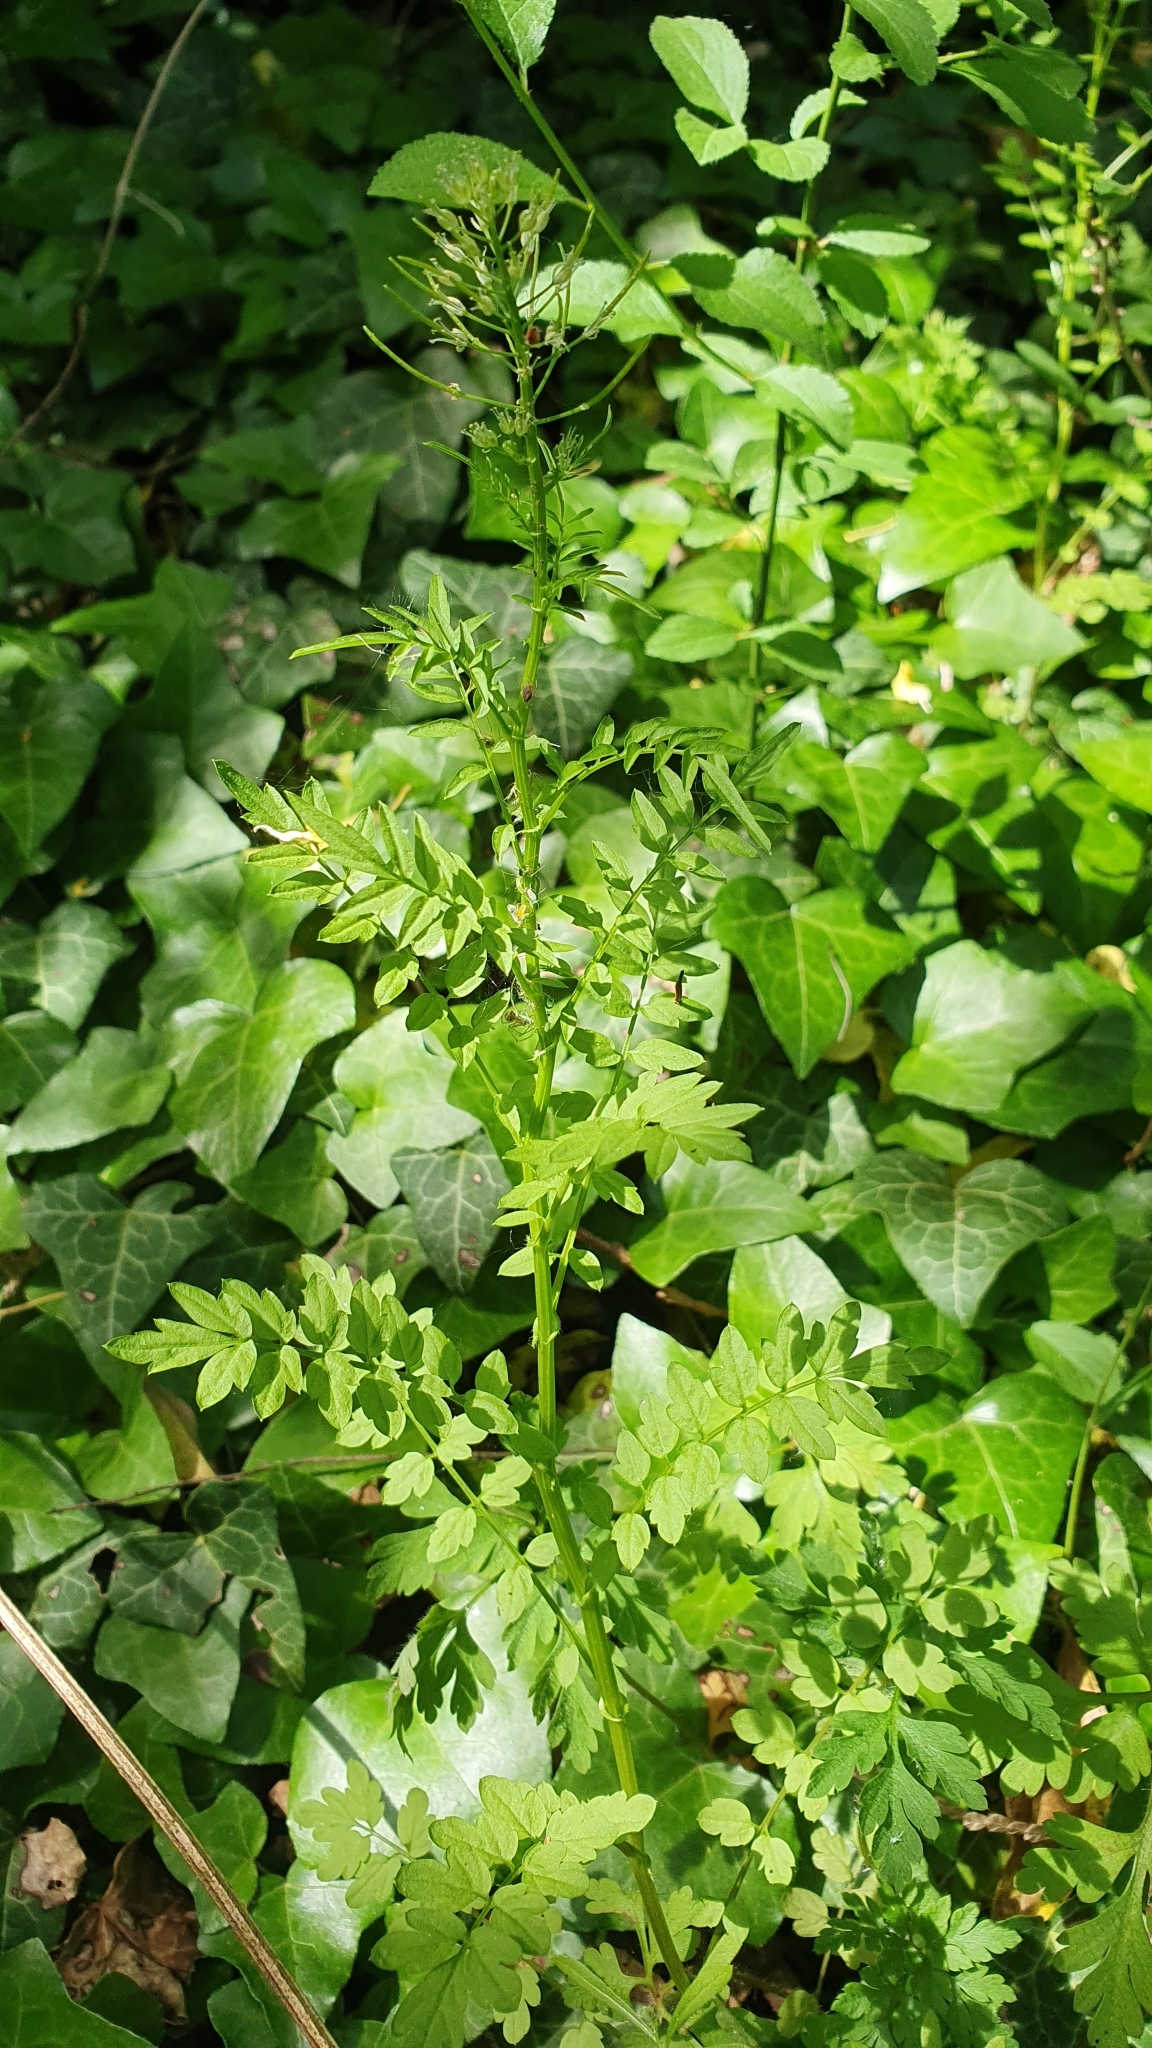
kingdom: Plantae
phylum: Tracheophyta
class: Magnoliopsida
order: Brassicales
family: Brassicaceae
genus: Cardamine
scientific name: Cardamine impatiens
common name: Narrow-leaved bitter-cress
